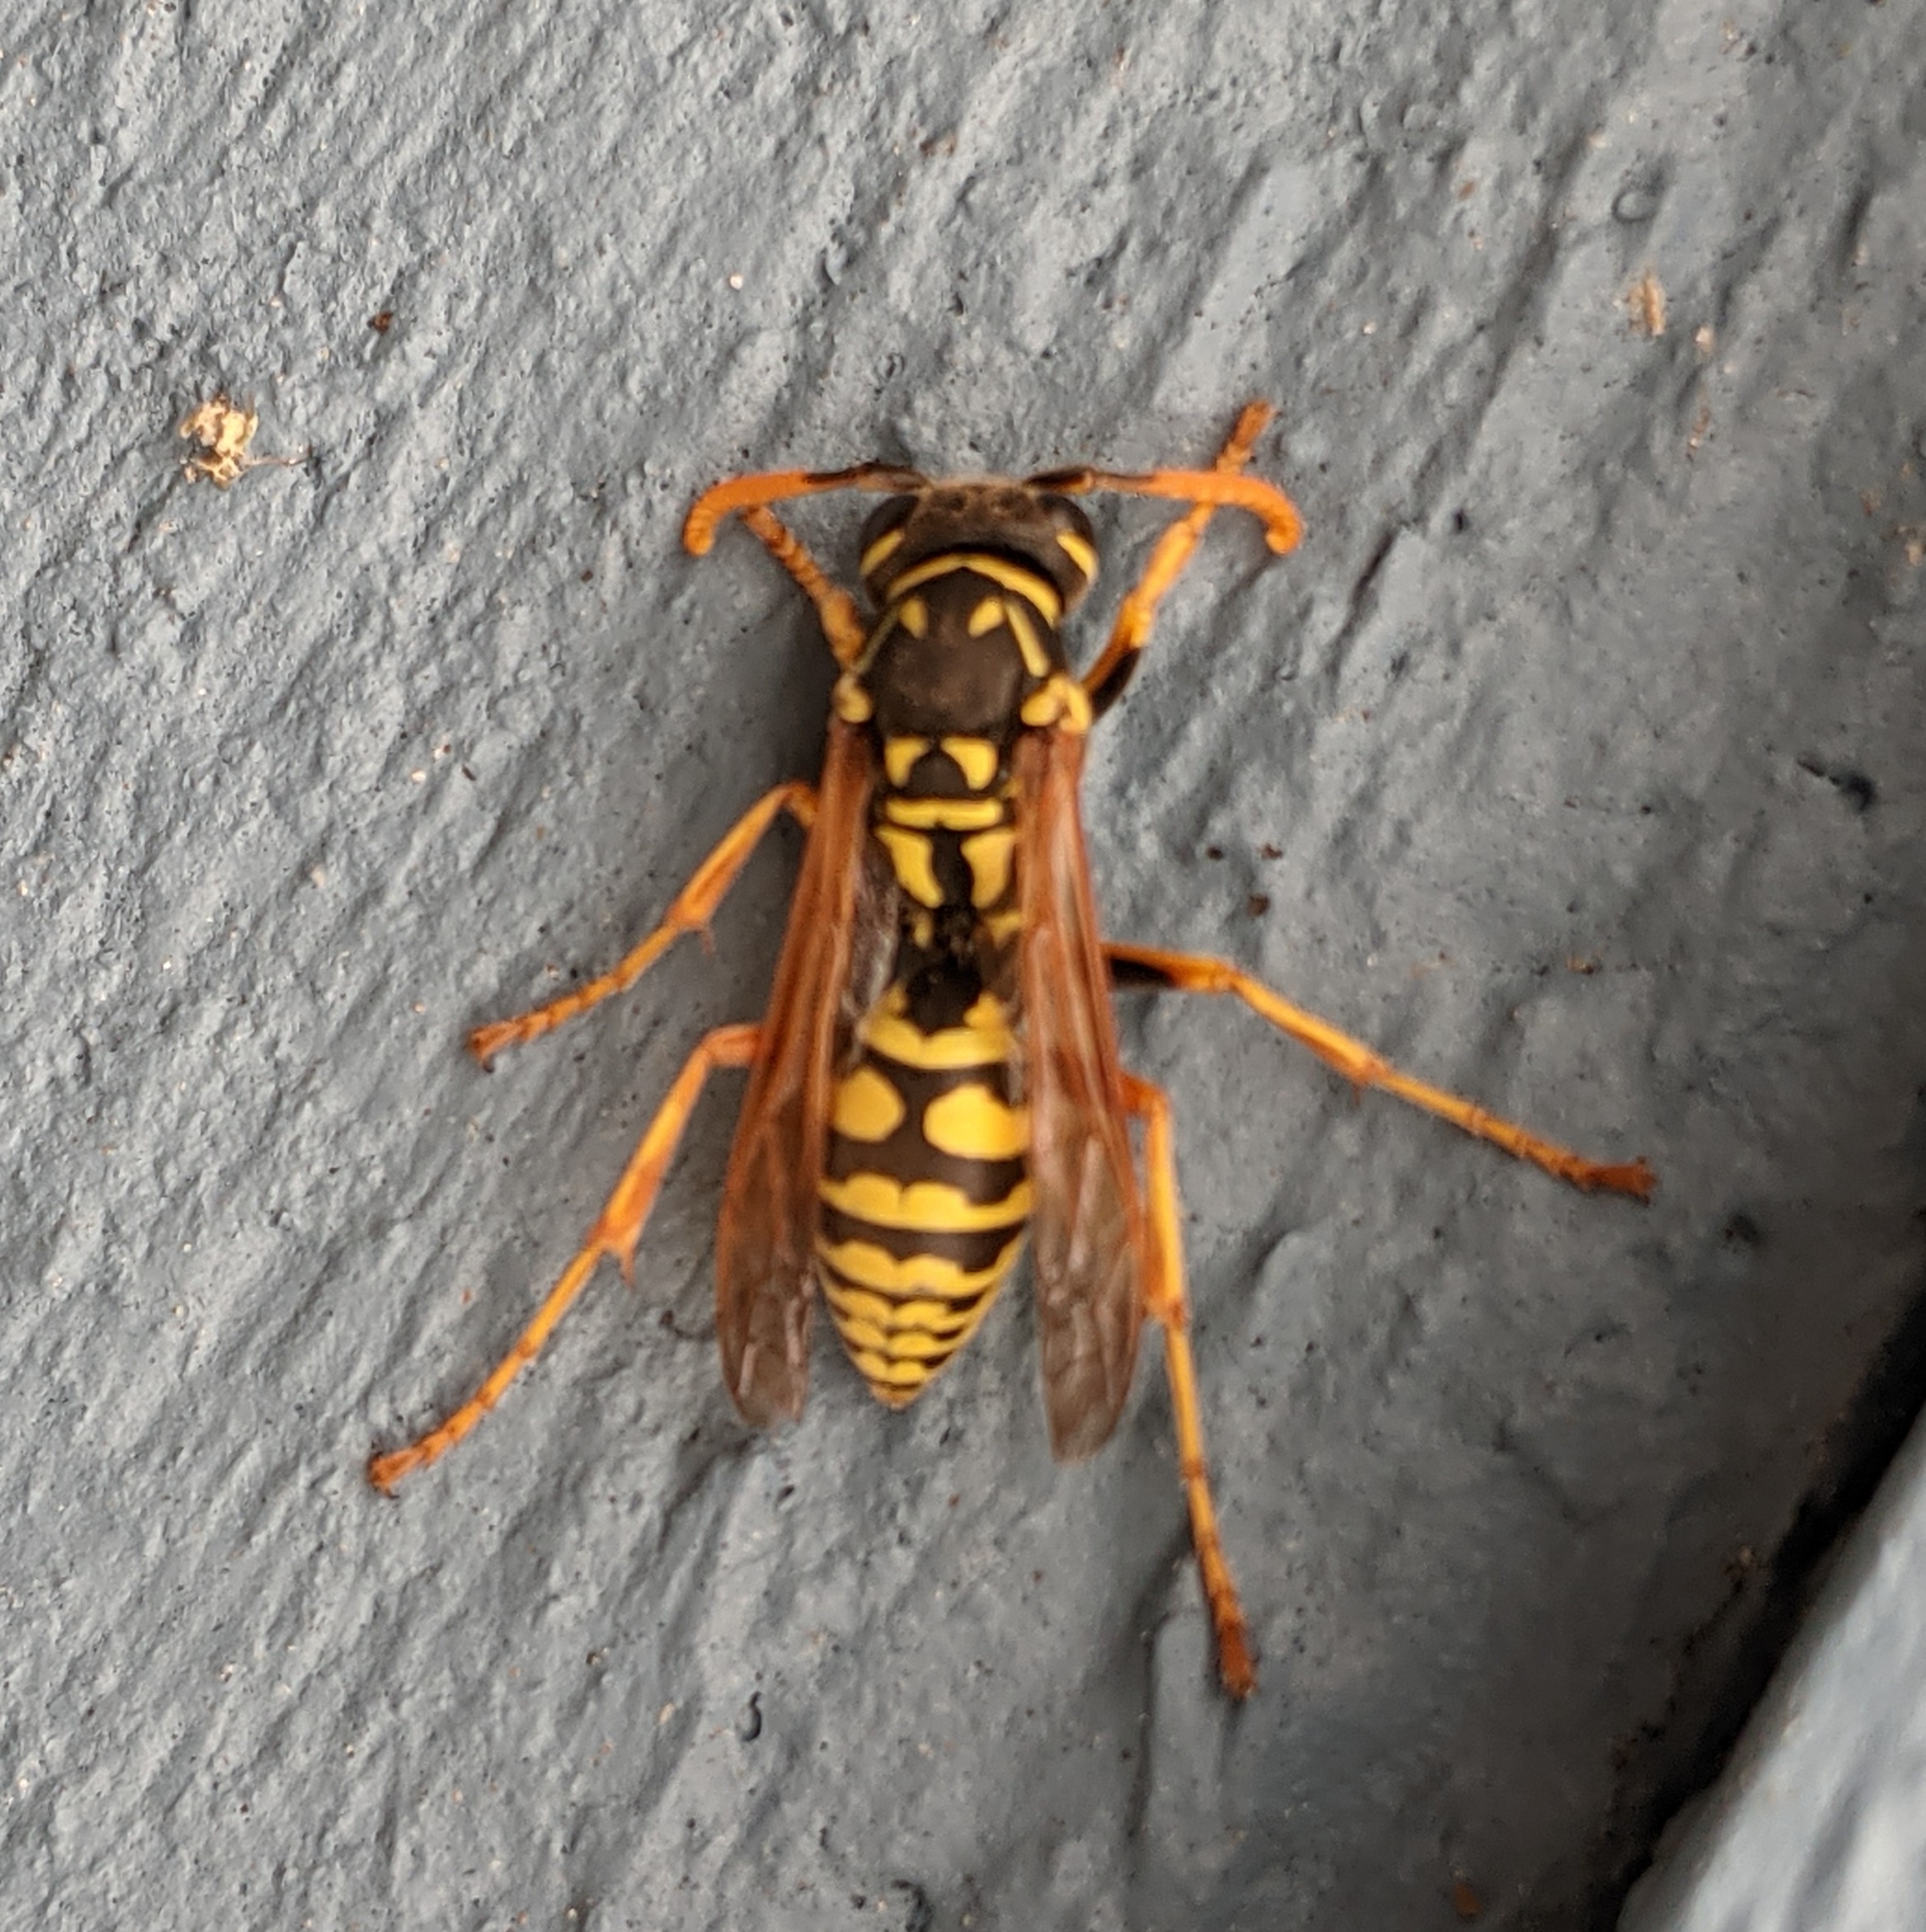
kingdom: Animalia
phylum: Arthropoda
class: Insecta
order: Hymenoptera
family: Eumenidae
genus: Polistes
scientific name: Polistes dominula
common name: Paper wasp
